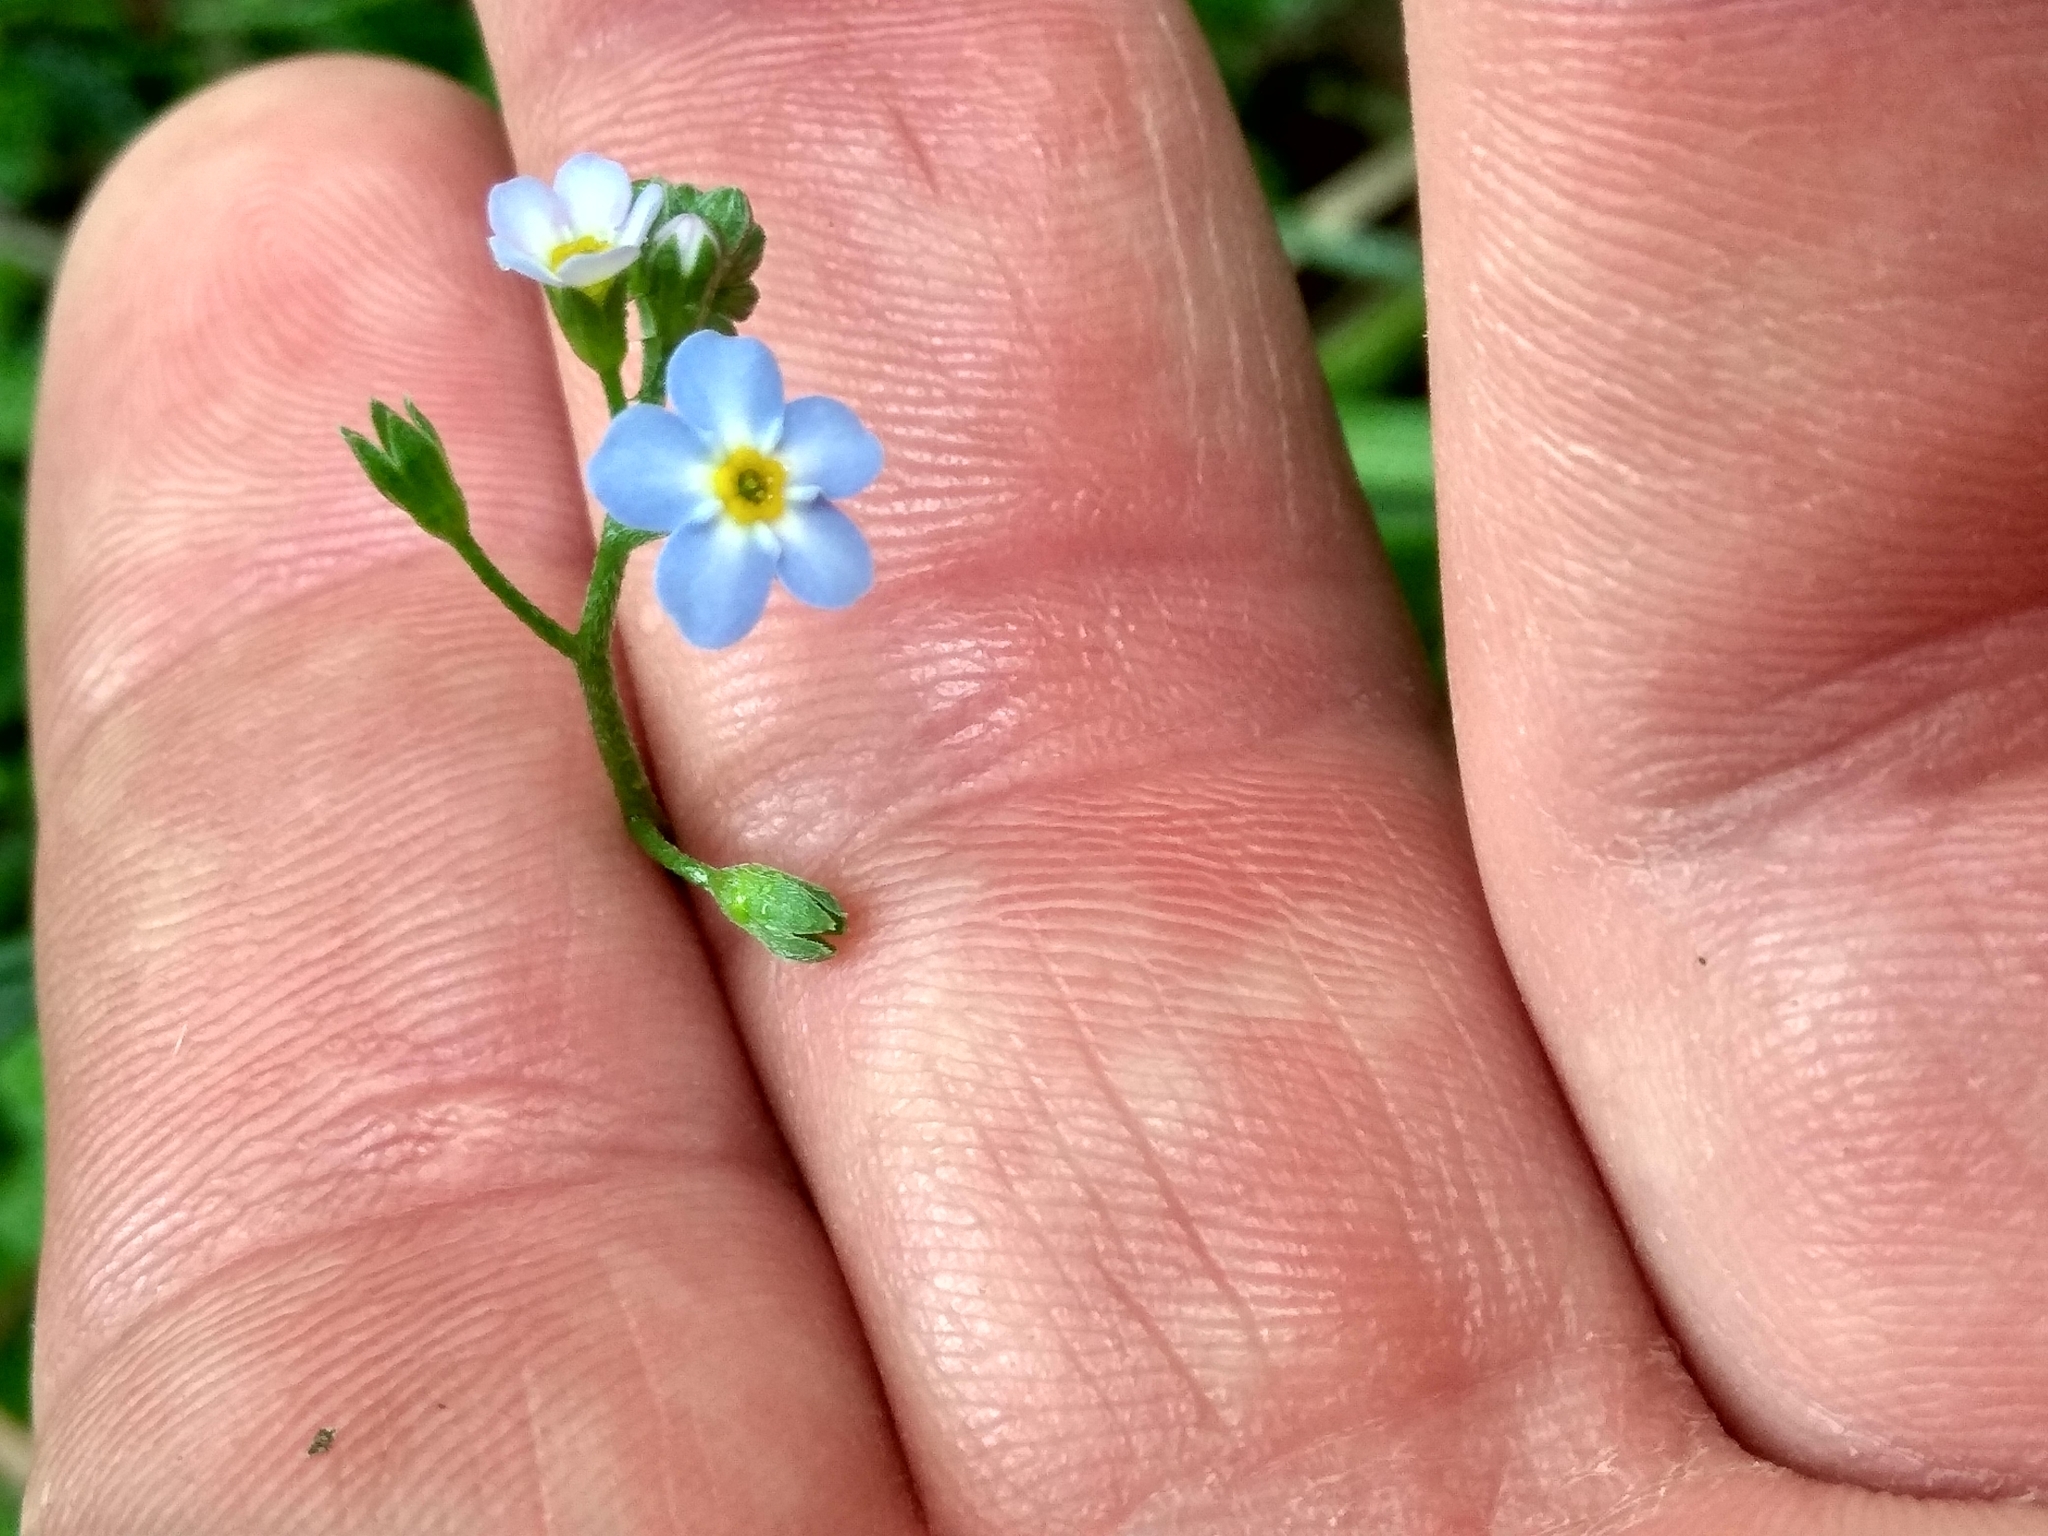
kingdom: Plantae
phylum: Tracheophyta
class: Magnoliopsida
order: Boraginales
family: Boraginaceae
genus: Myosotis
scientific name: Myosotis scorpioides
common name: Water forget-me-not
